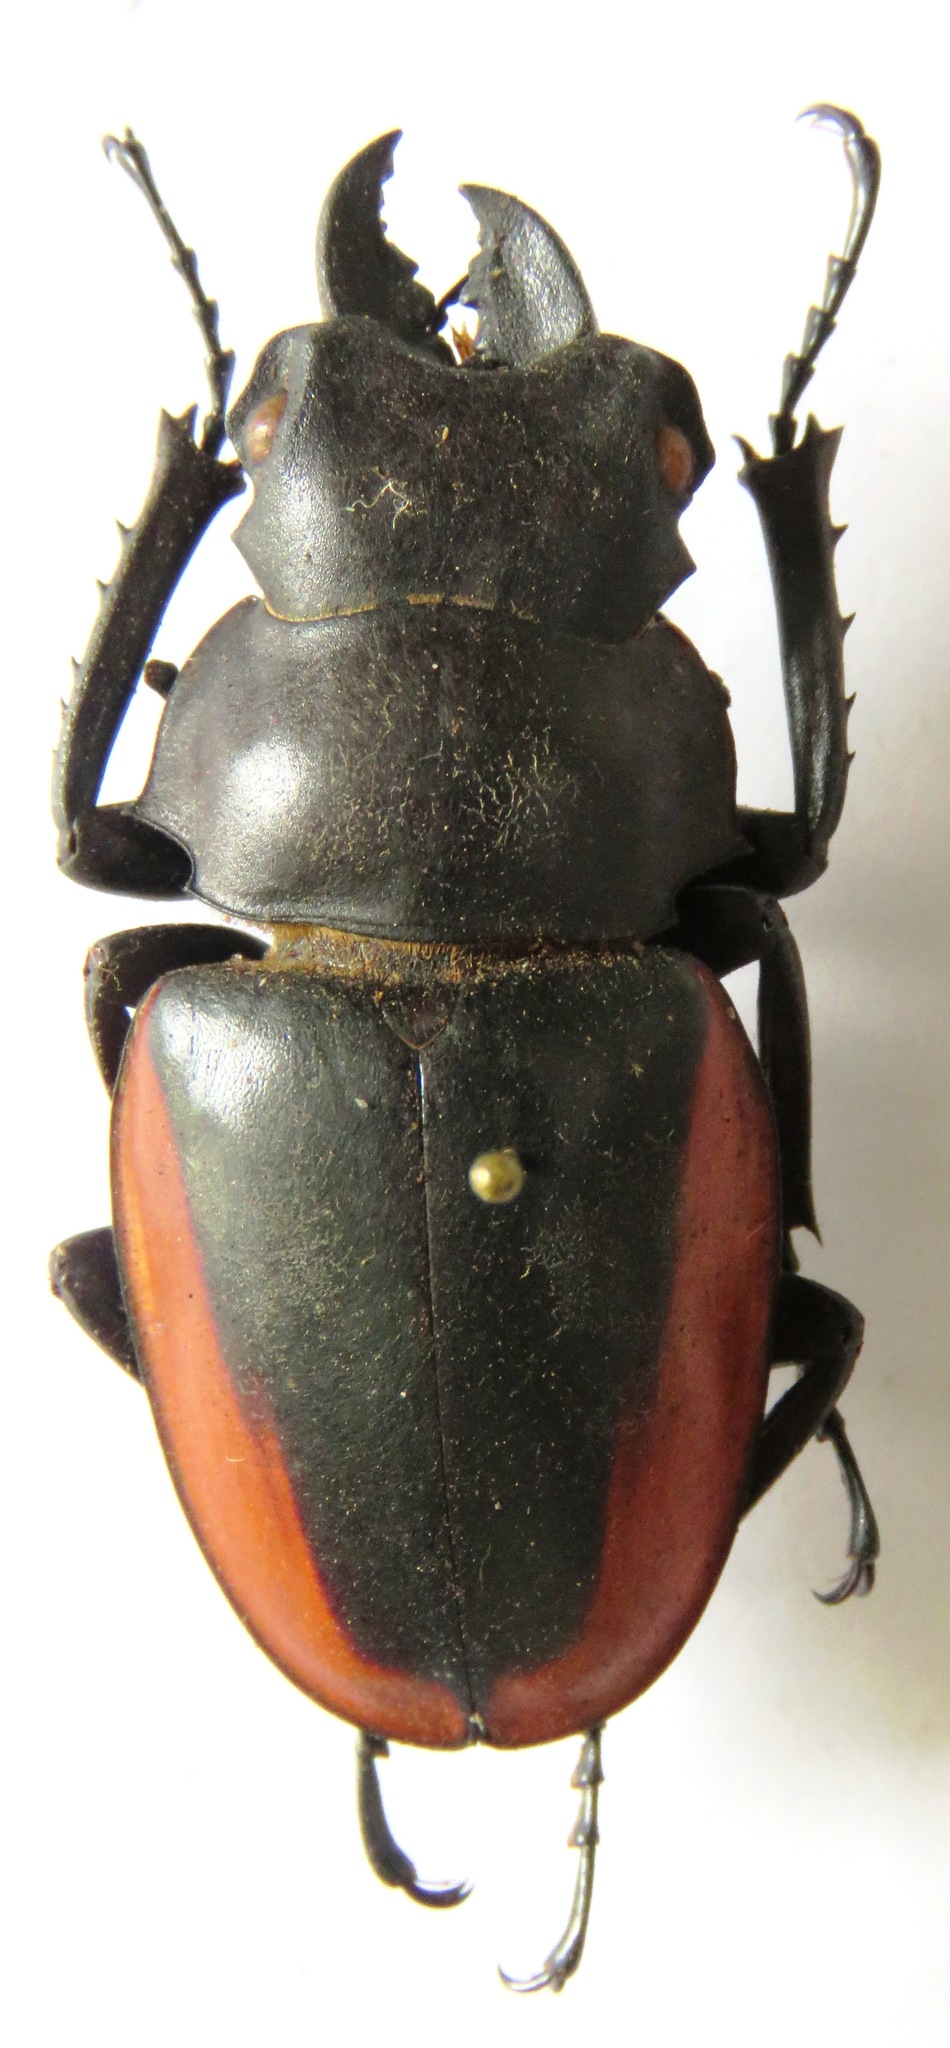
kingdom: Animalia
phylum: Arthropoda
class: Insecta
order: Coleoptera
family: Lucanidae
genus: Odontolabis
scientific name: Odontolabis cuvera
